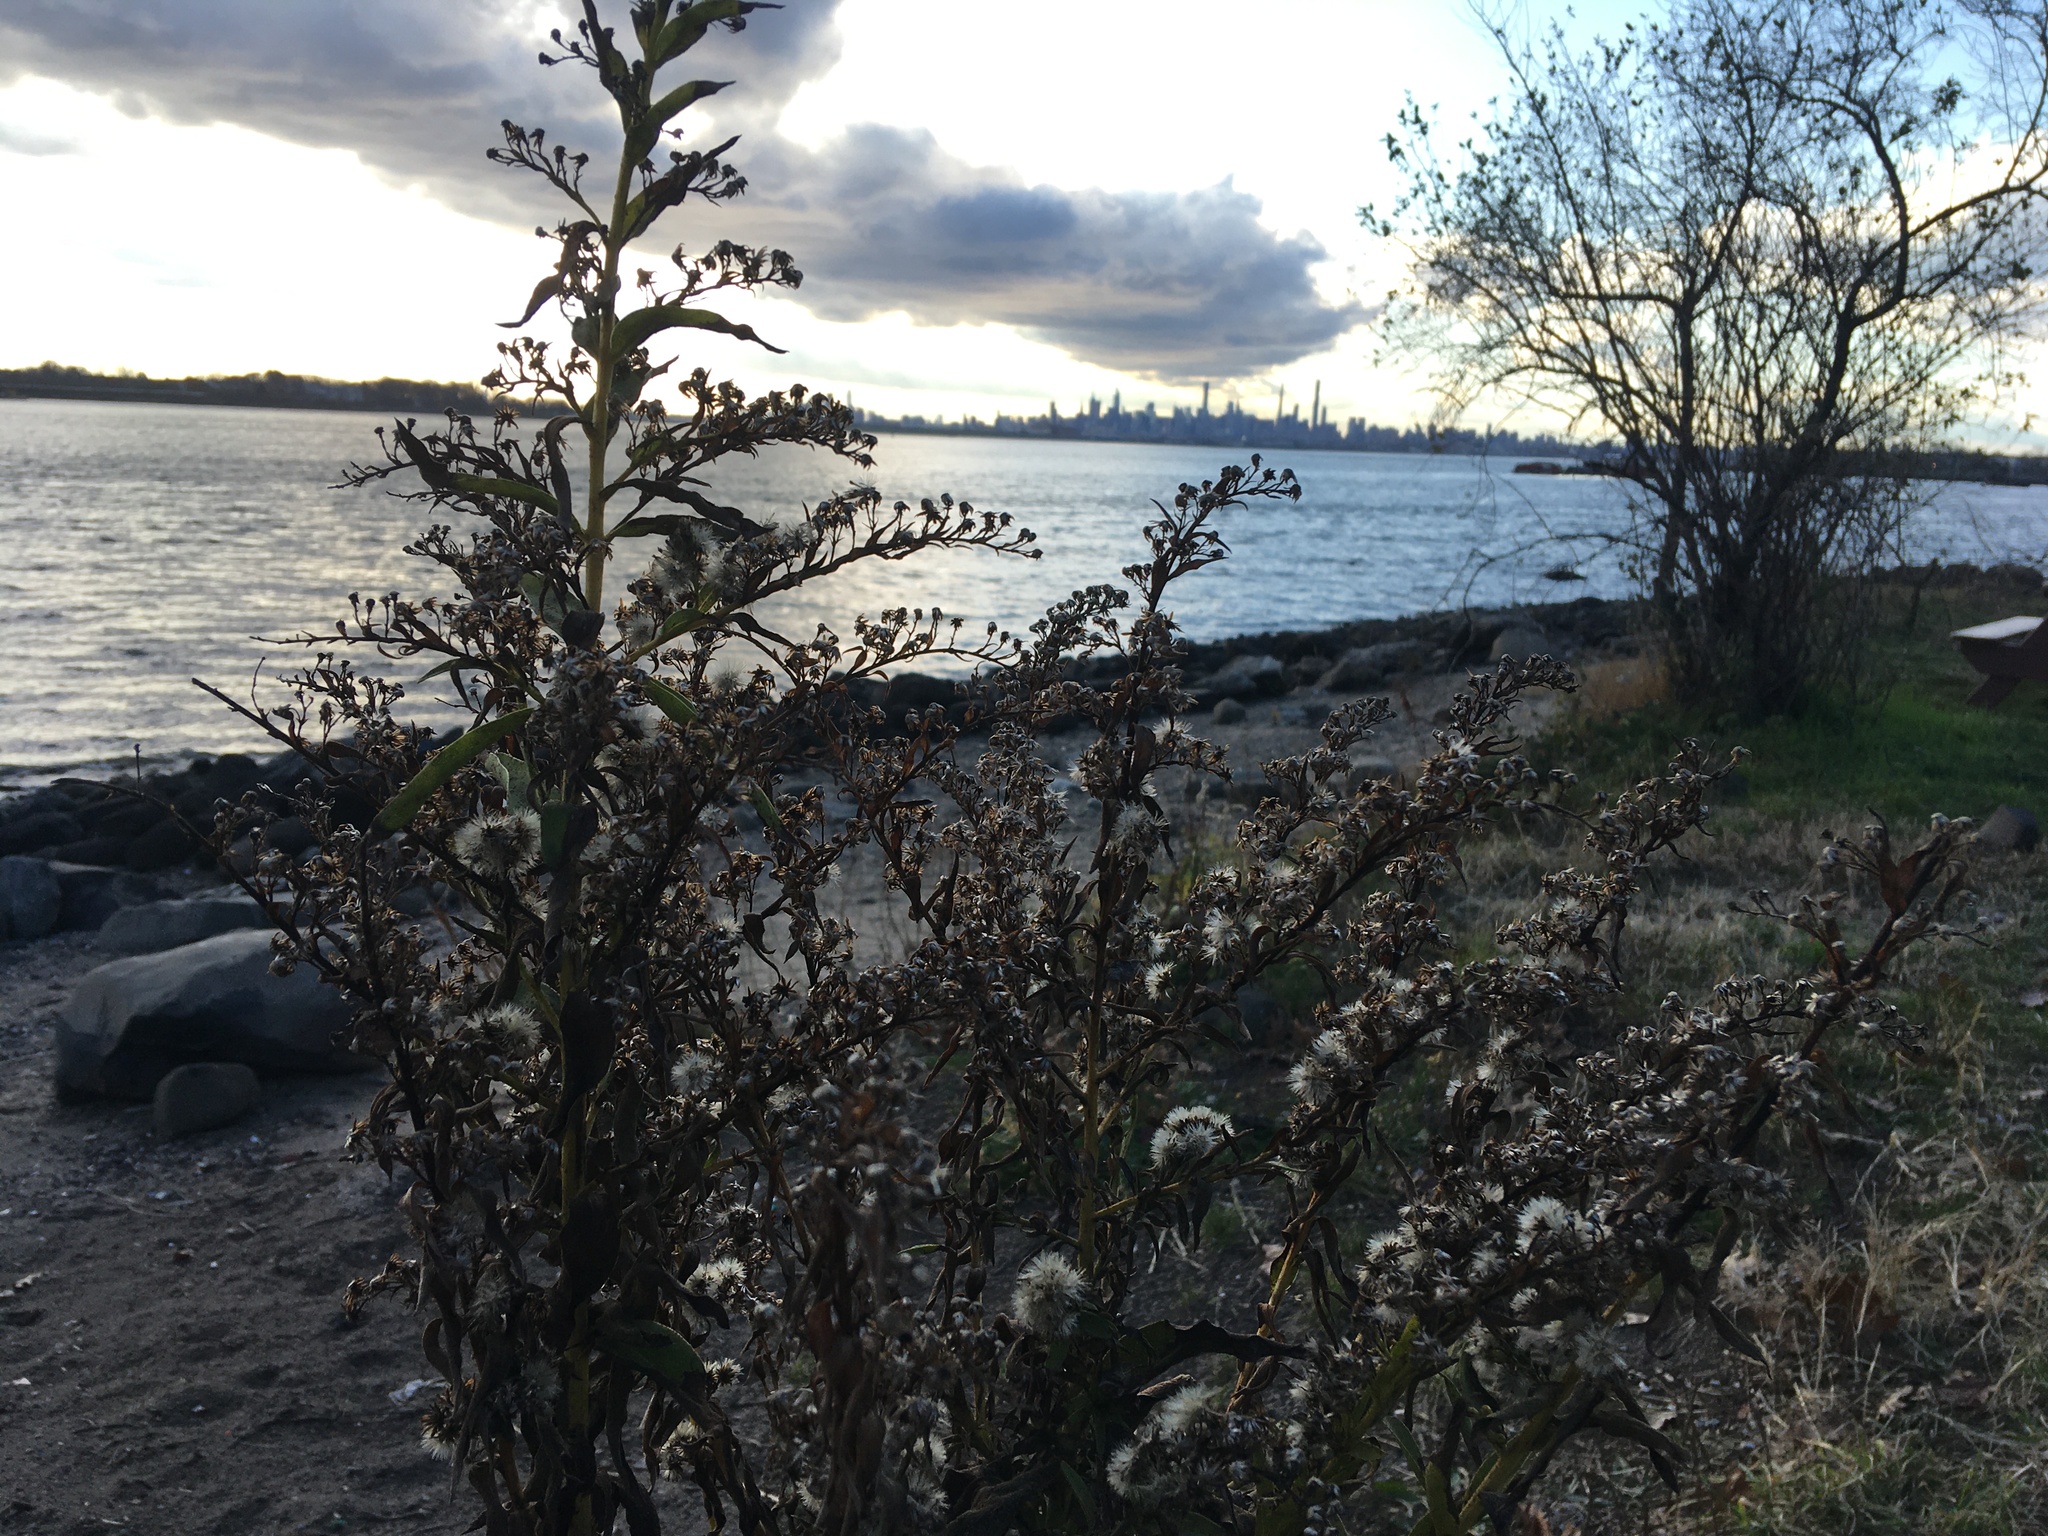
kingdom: Plantae
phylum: Tracheophyta
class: Magnoliopsida
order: Asterales
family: Asteraceae
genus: Solidago
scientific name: Solidago sempervirens
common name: Salt-marsh goldenrod
